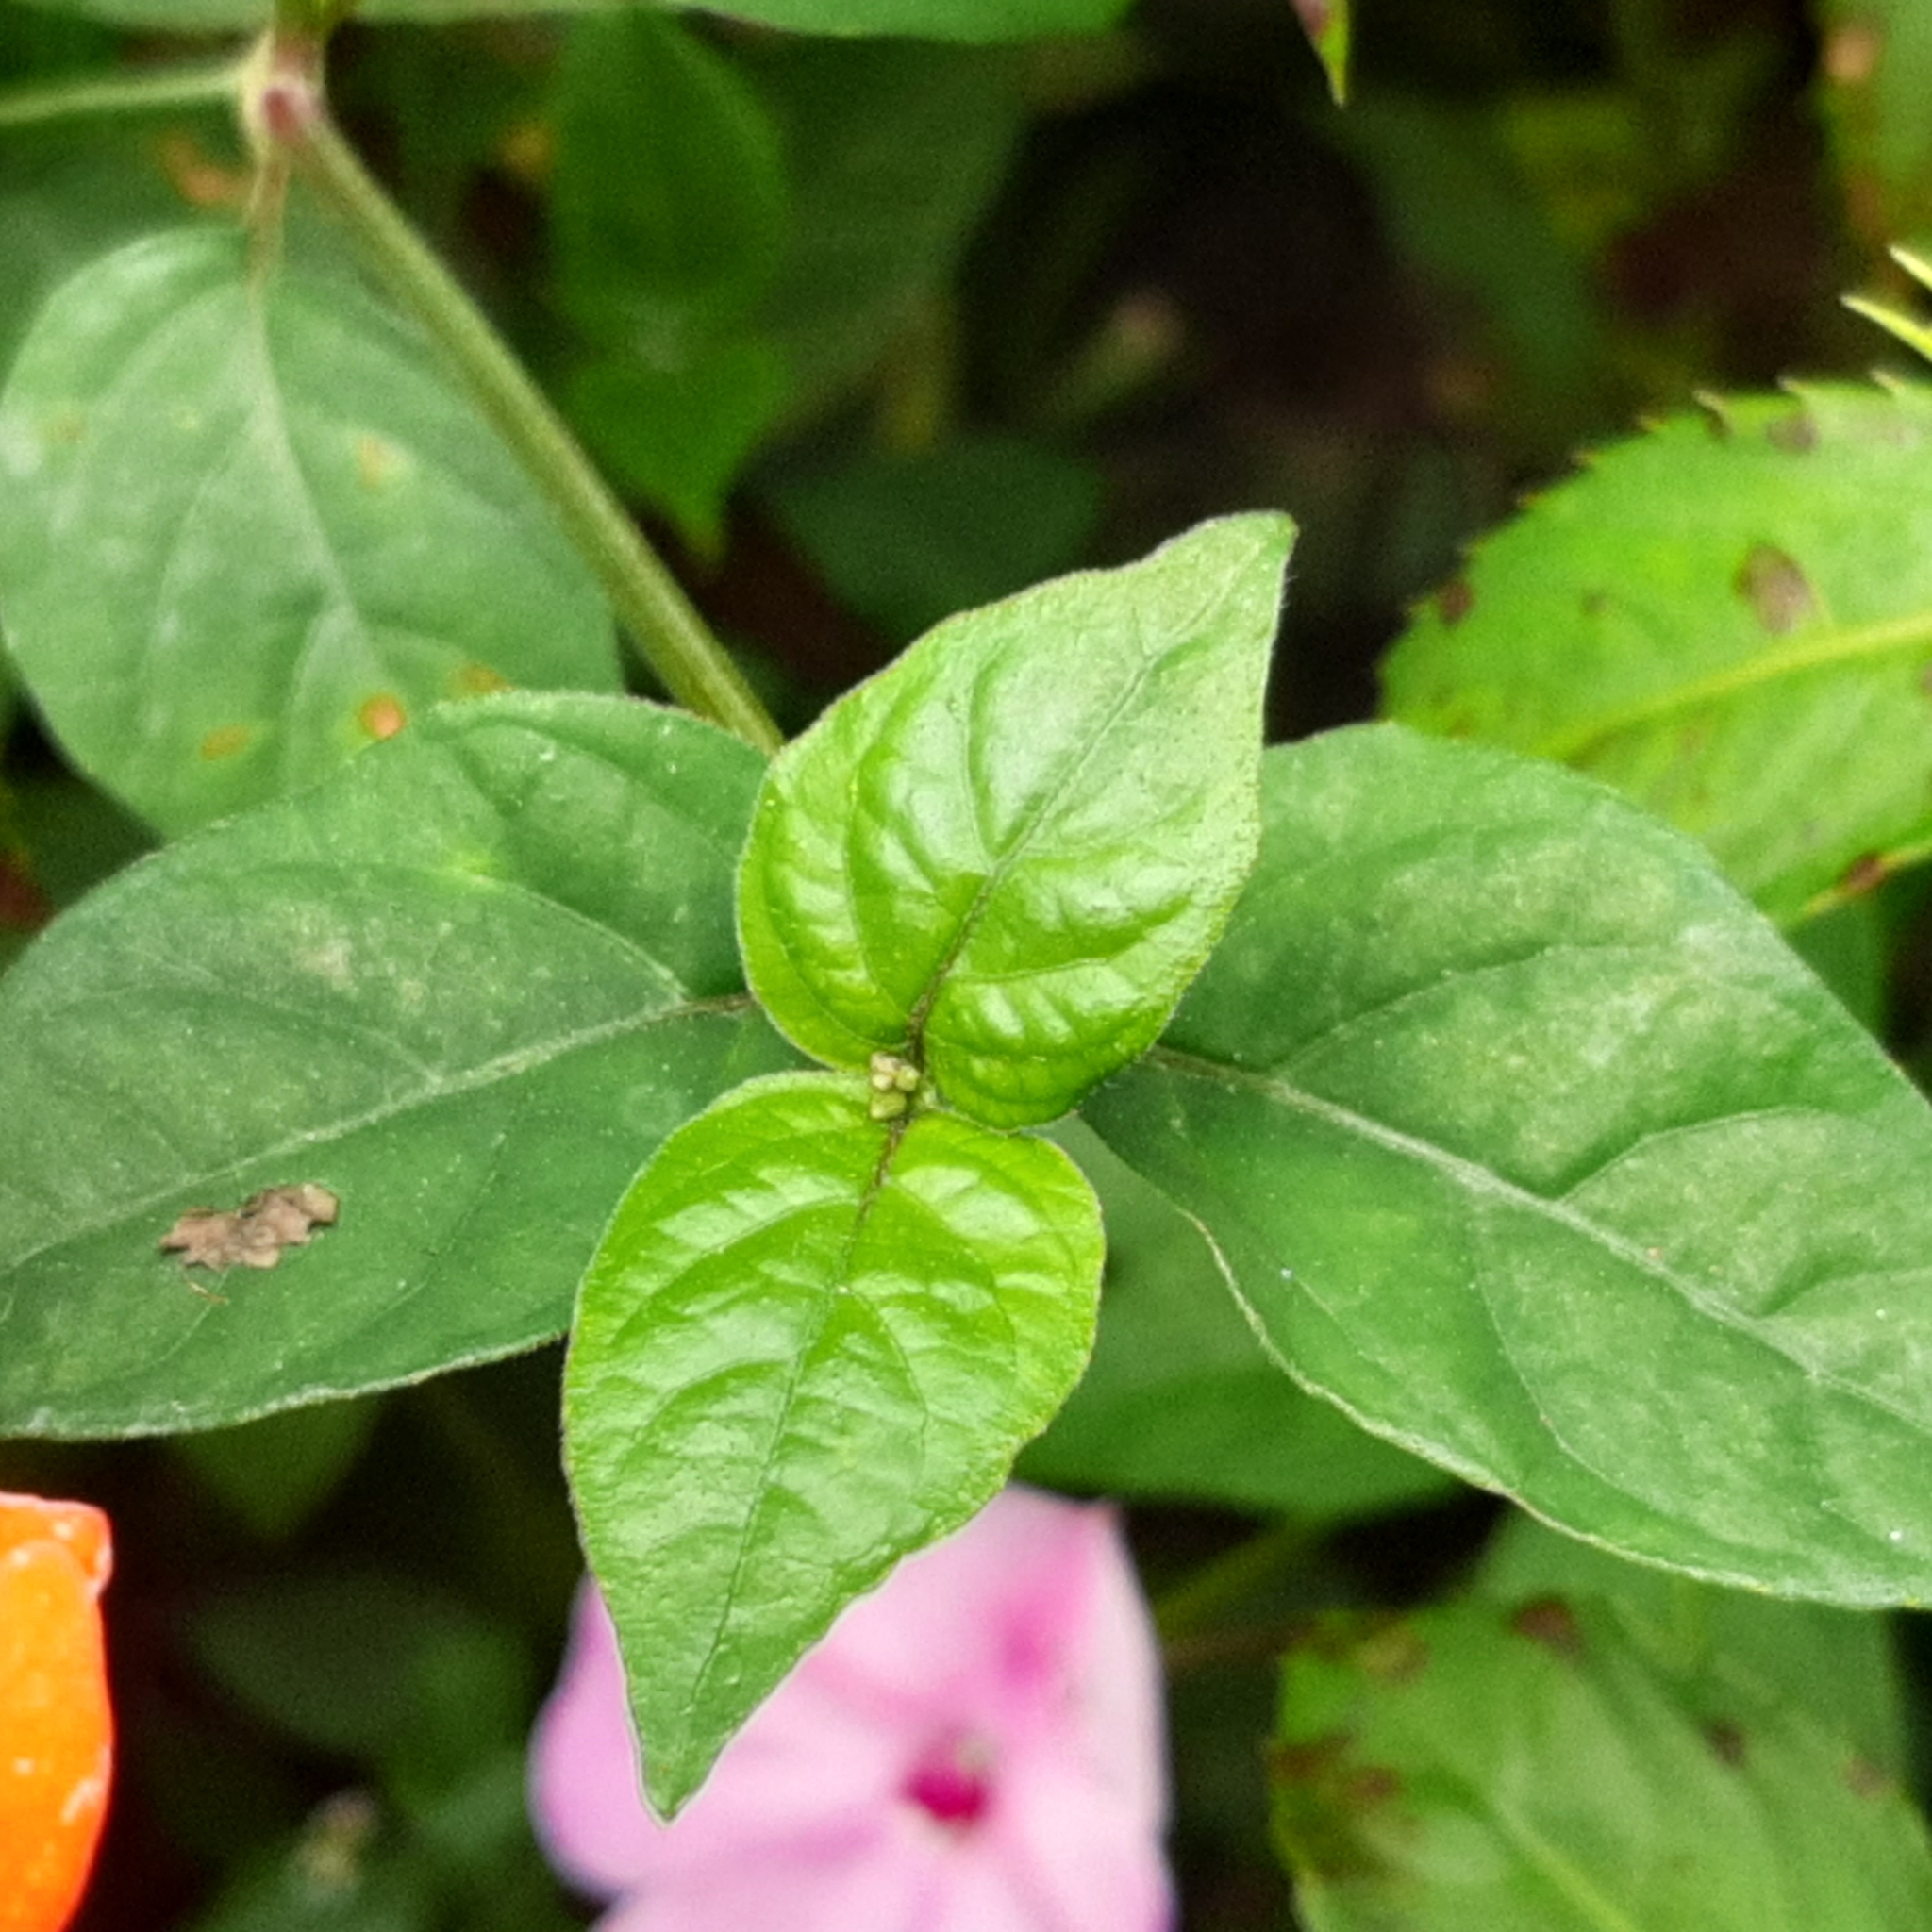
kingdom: Plantae
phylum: Tracheophyta
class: Magnoliopsida
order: Lamiales
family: Acanthaceae
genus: Asystasia
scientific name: Asystasia intrusa
